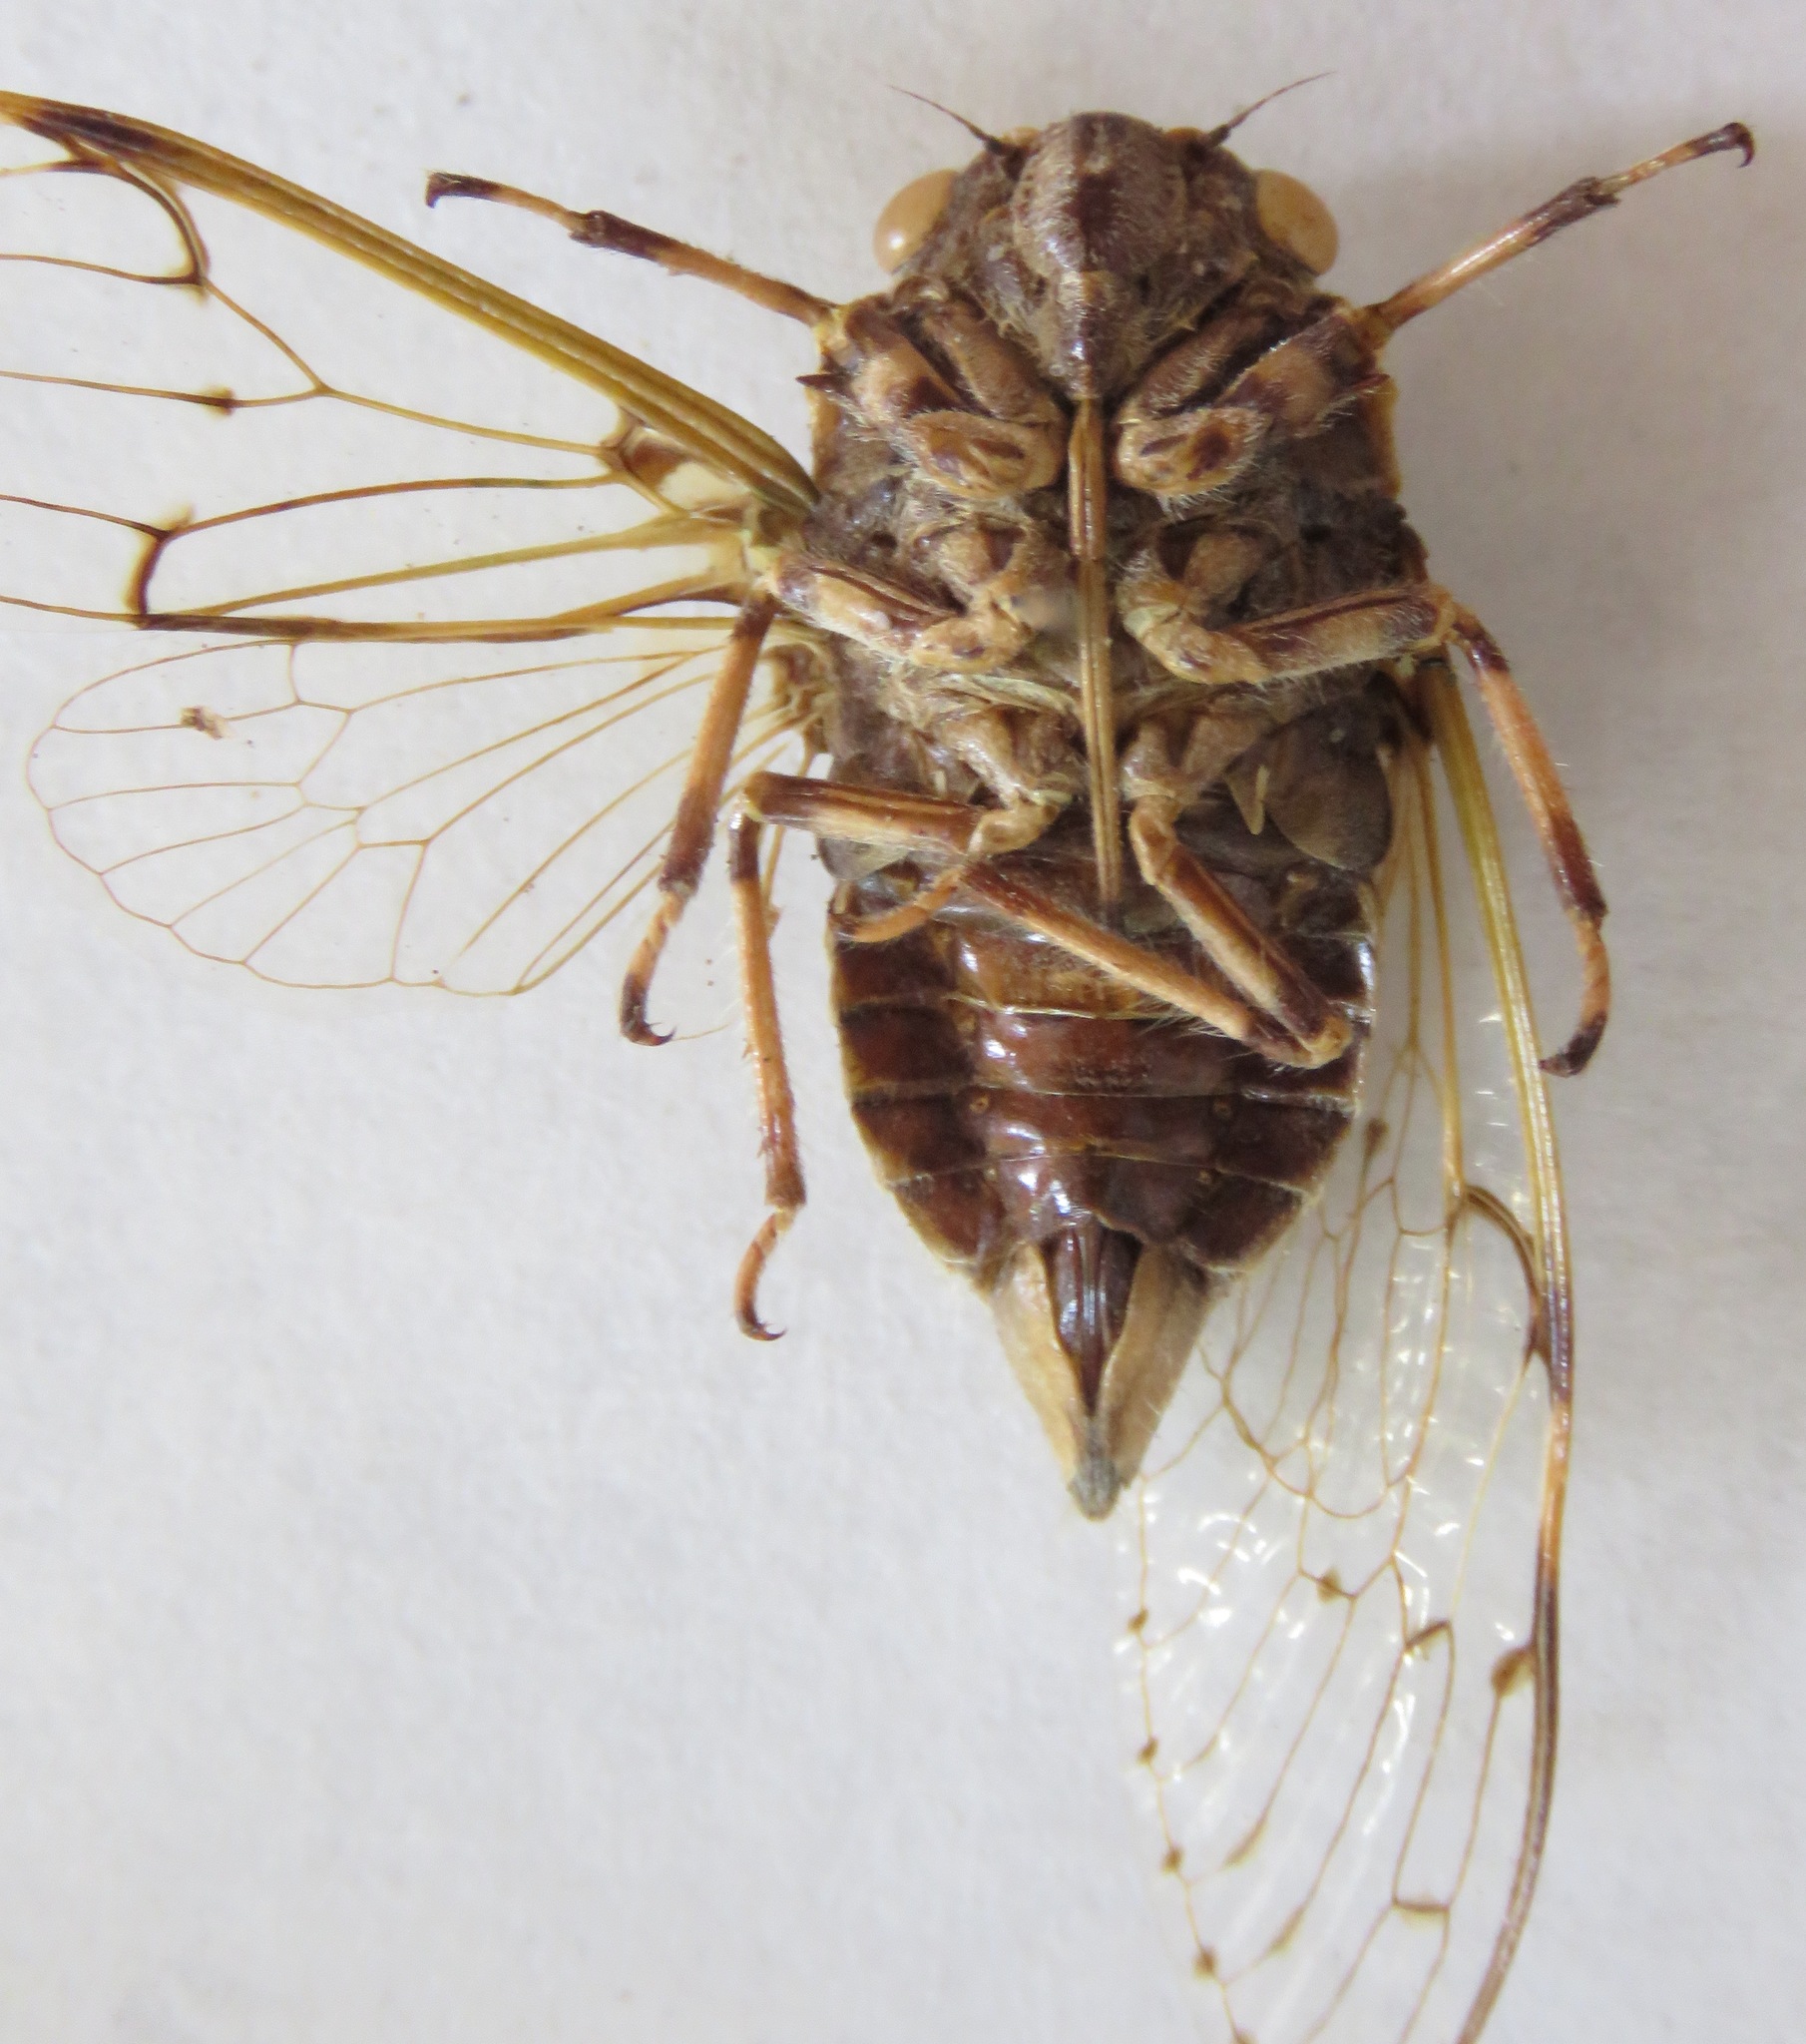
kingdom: Animalia
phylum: Arthropoda
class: Insecta
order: Hemiptera
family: Cicadidae
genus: Proarna
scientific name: Proarna insignis
